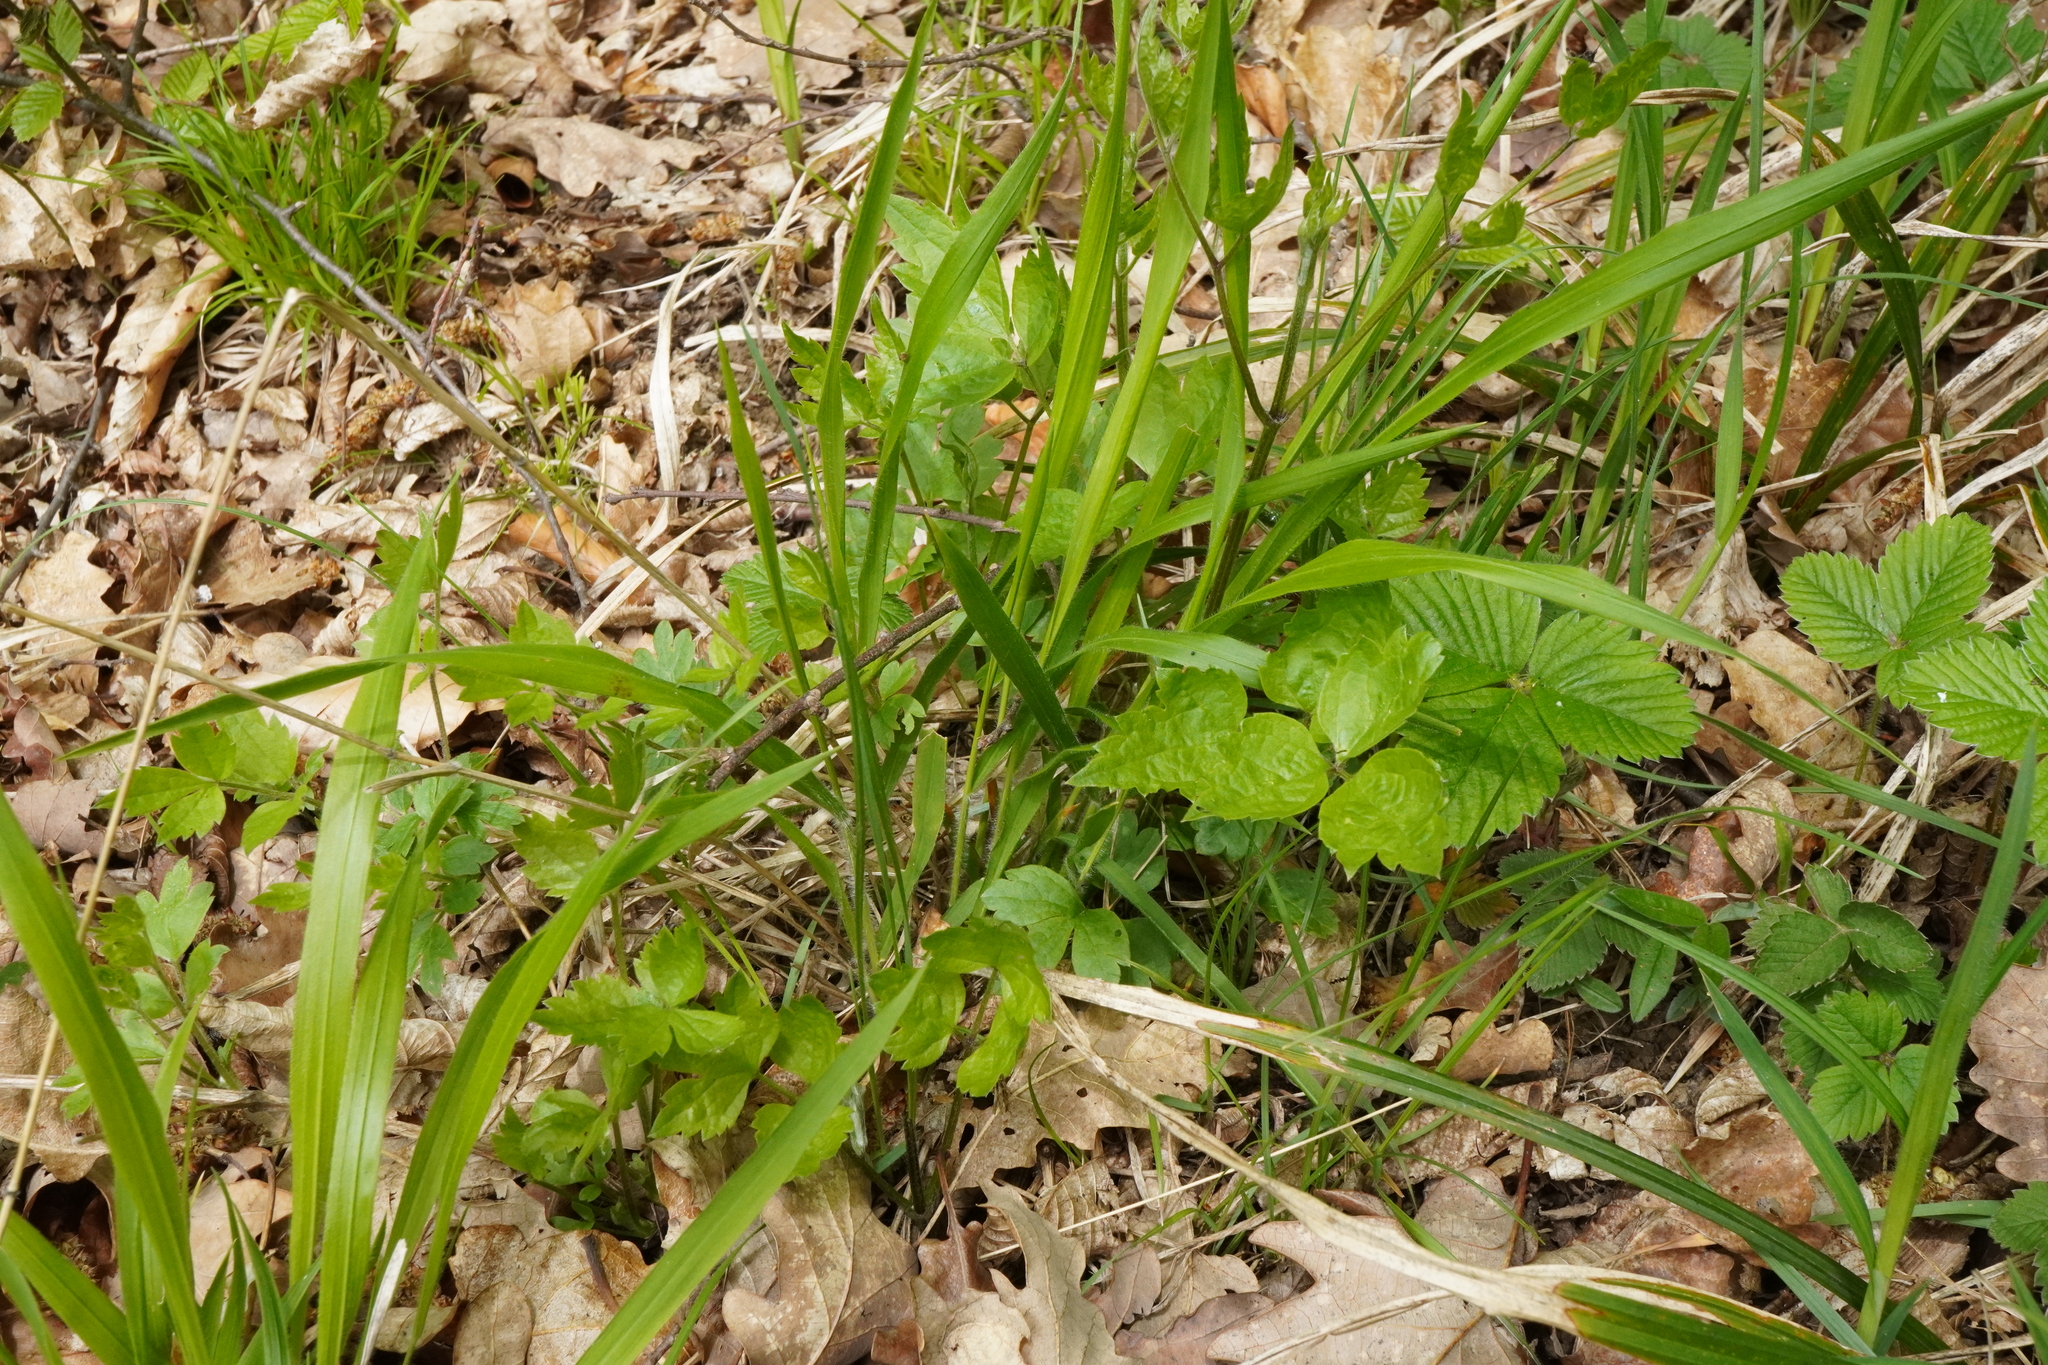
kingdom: Plantae
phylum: Tracheophyta
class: Magnoliopsida
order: Ranunculales
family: Ranunculaceae
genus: Clematis
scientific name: Clematis vitalba
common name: Evergreen clematis
